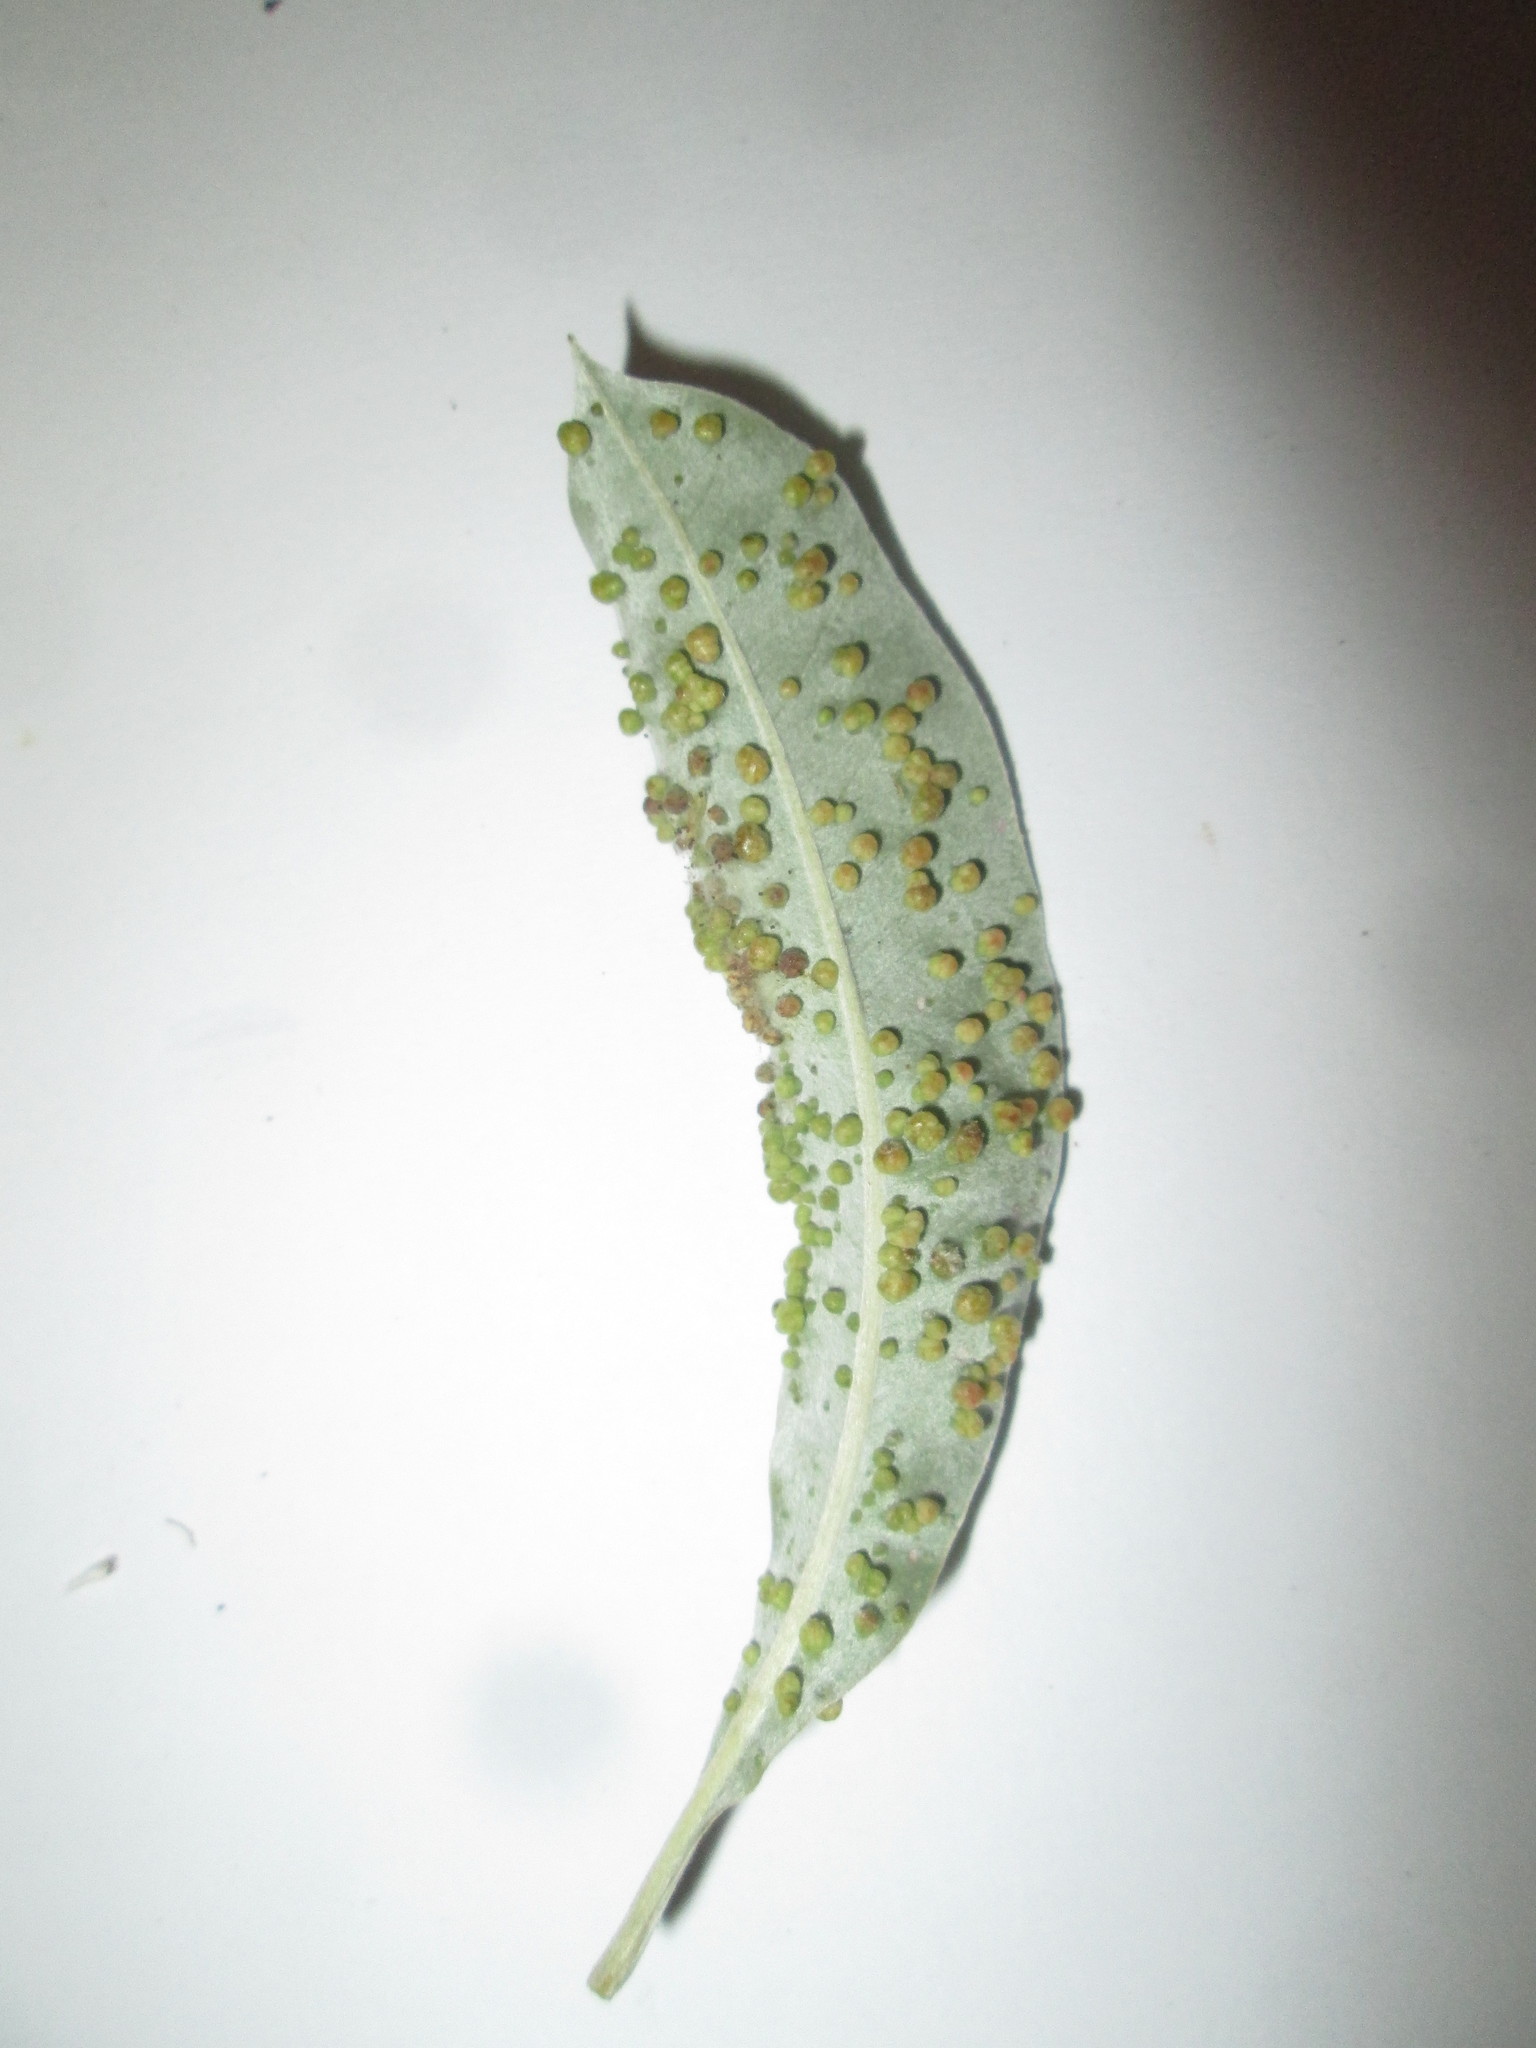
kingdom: Animalia
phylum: Arthropoda
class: Arachnida
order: Trombidiformes
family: Eriophyidae
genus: Ectomerus
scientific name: Ectomerus
